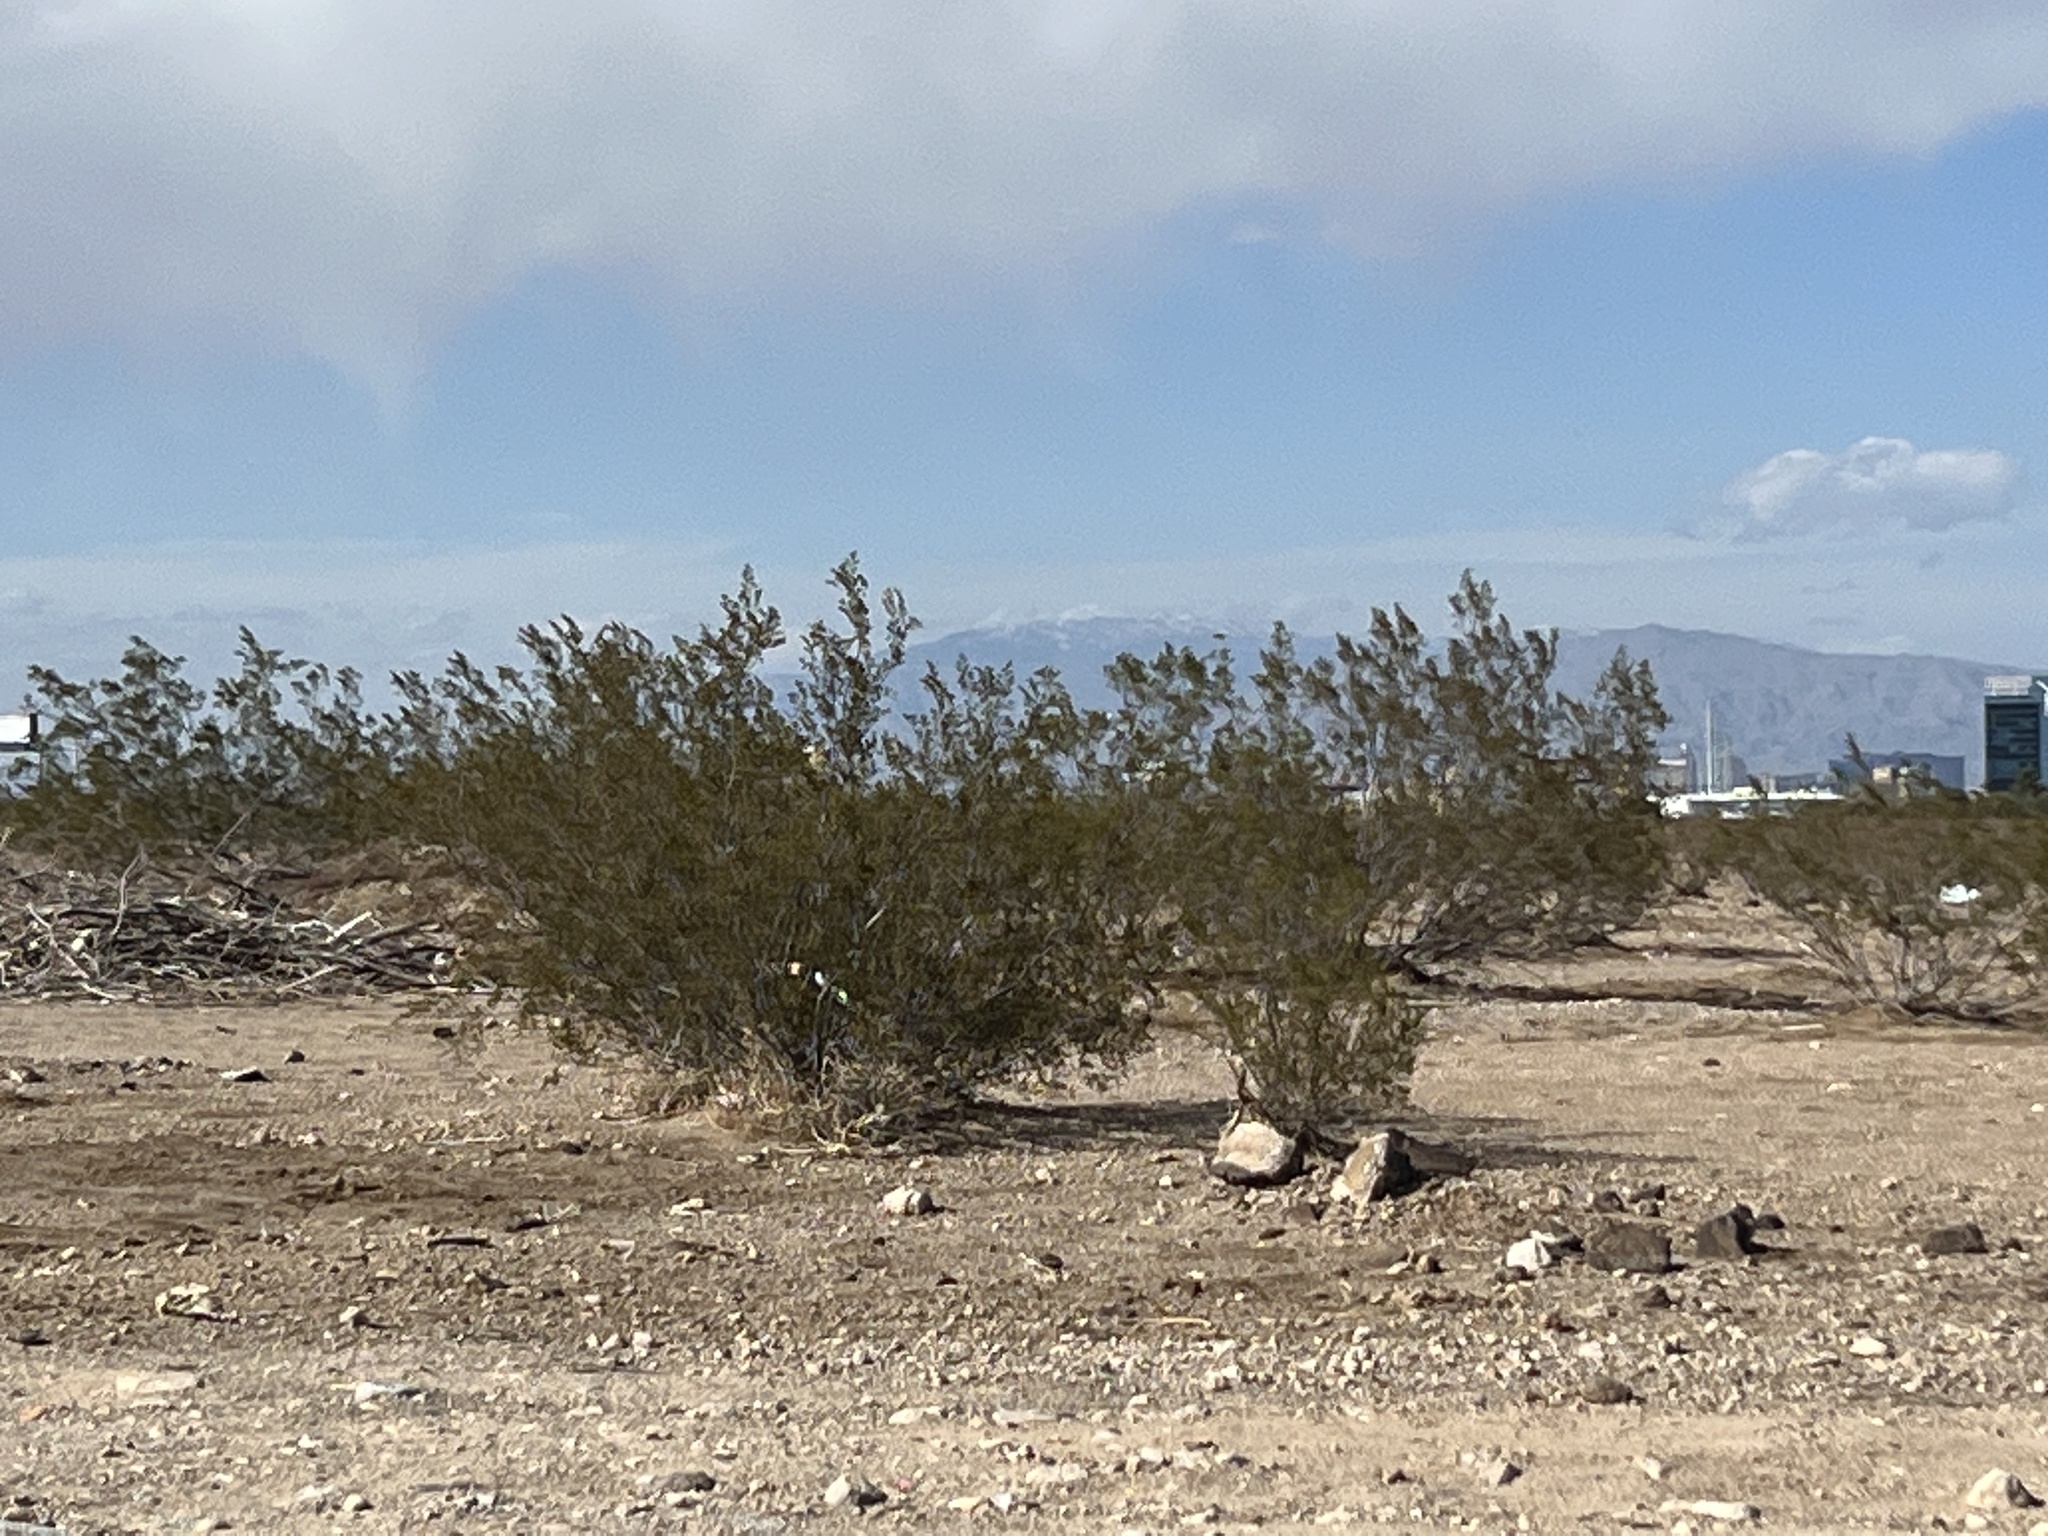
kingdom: Plantae
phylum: Tracheophyta
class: Magnoliopsida
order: Zygophyllales
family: Zygophyllaceae
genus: Larrea
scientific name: Larrea tridentata
